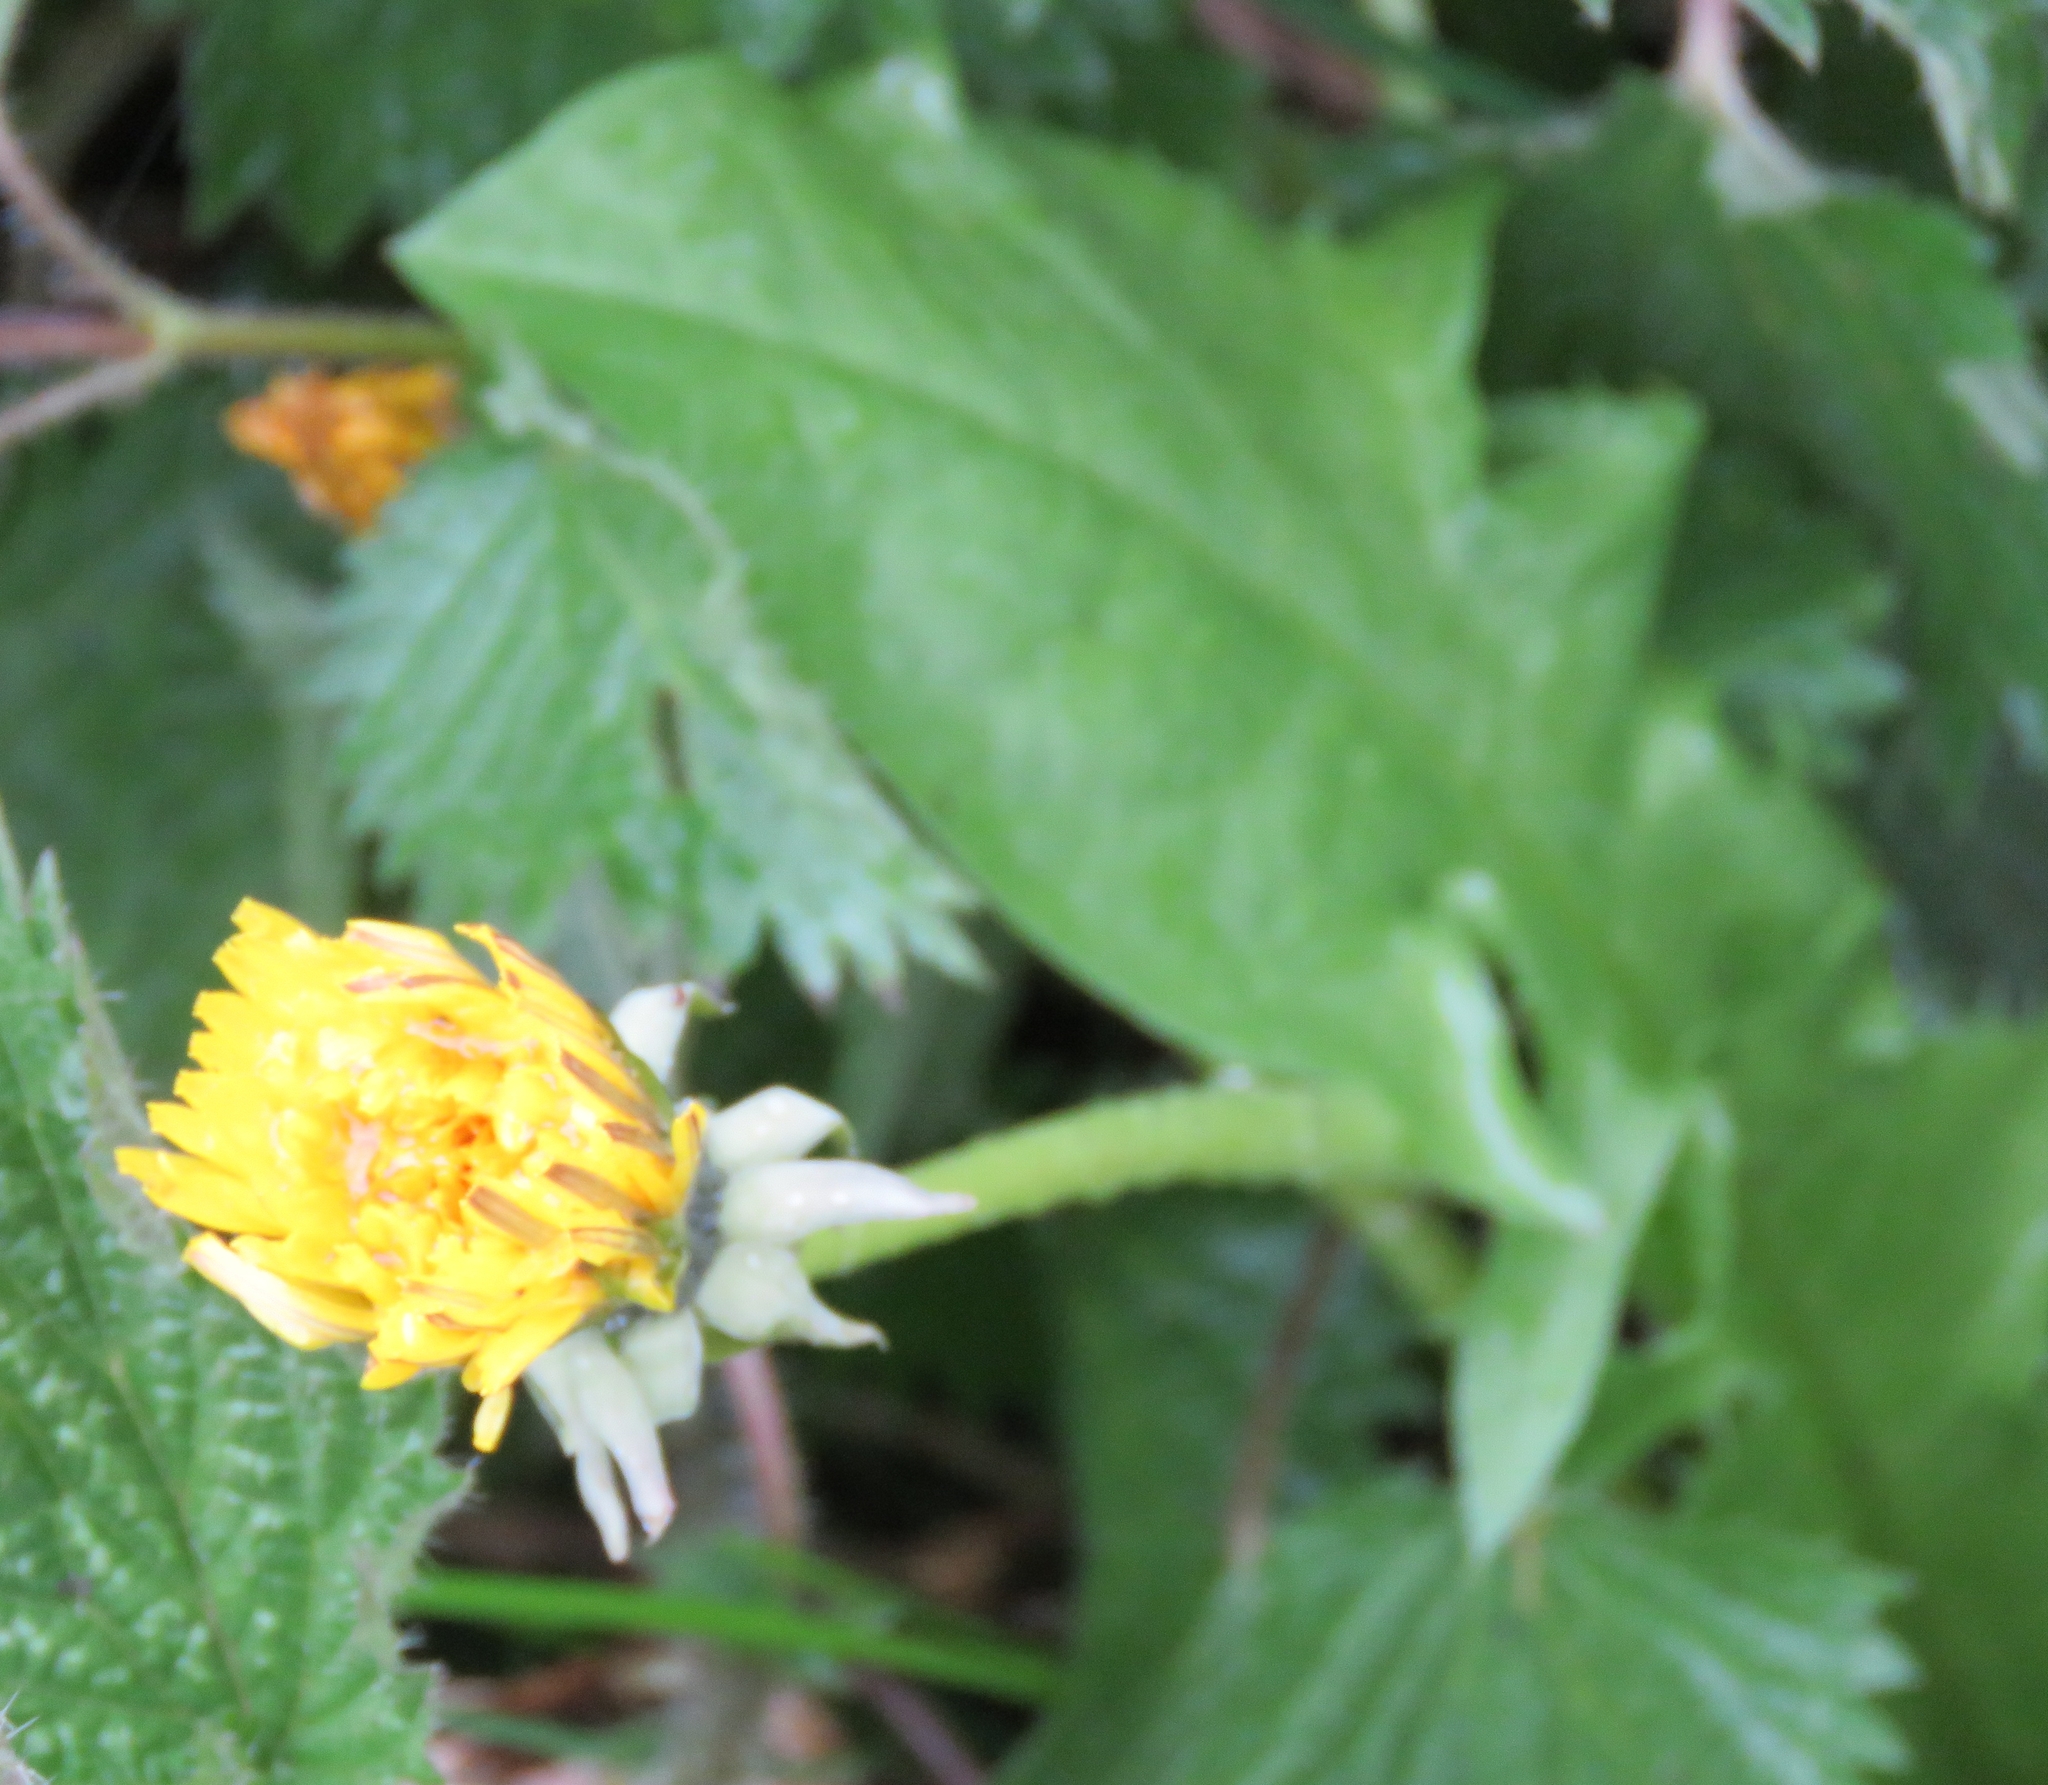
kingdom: Plantae
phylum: Tracheophyta
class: Magnoliopsida
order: Asterales
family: Asteraceae
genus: Taraxacum
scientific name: Taraxacum officinale
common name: Common dandelion
